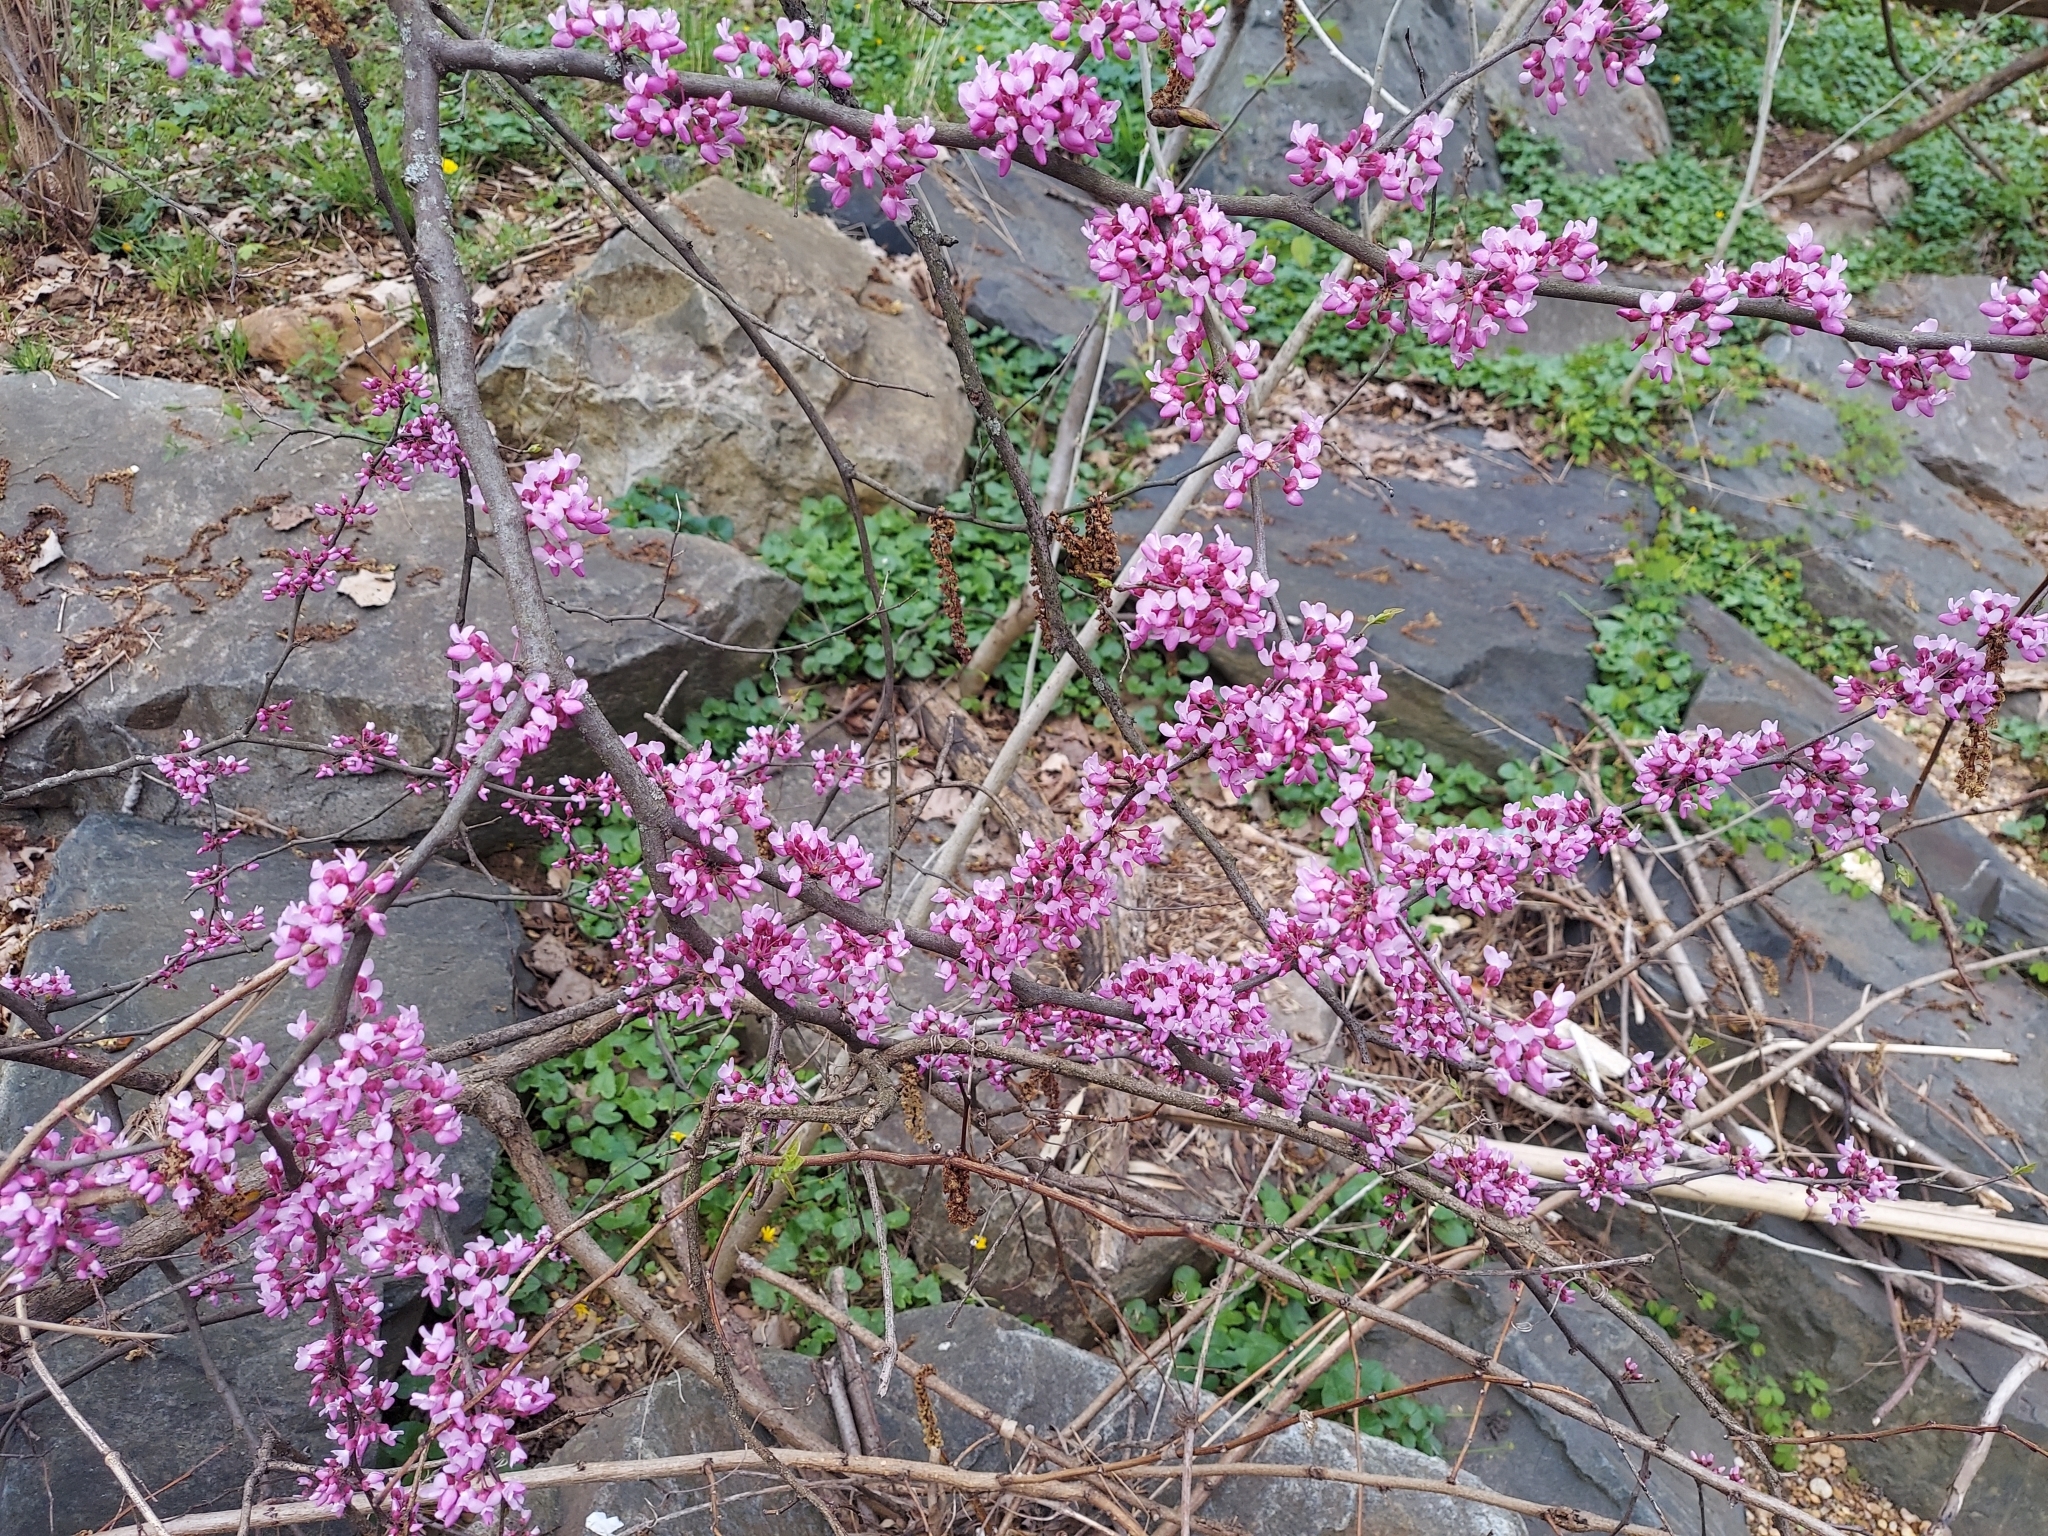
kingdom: Plantae
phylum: Tracheophyta
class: Magnoliopsida
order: Fabales
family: Fabaceae
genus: Cercis
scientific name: Cercis canadensis
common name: Eastern redbud
